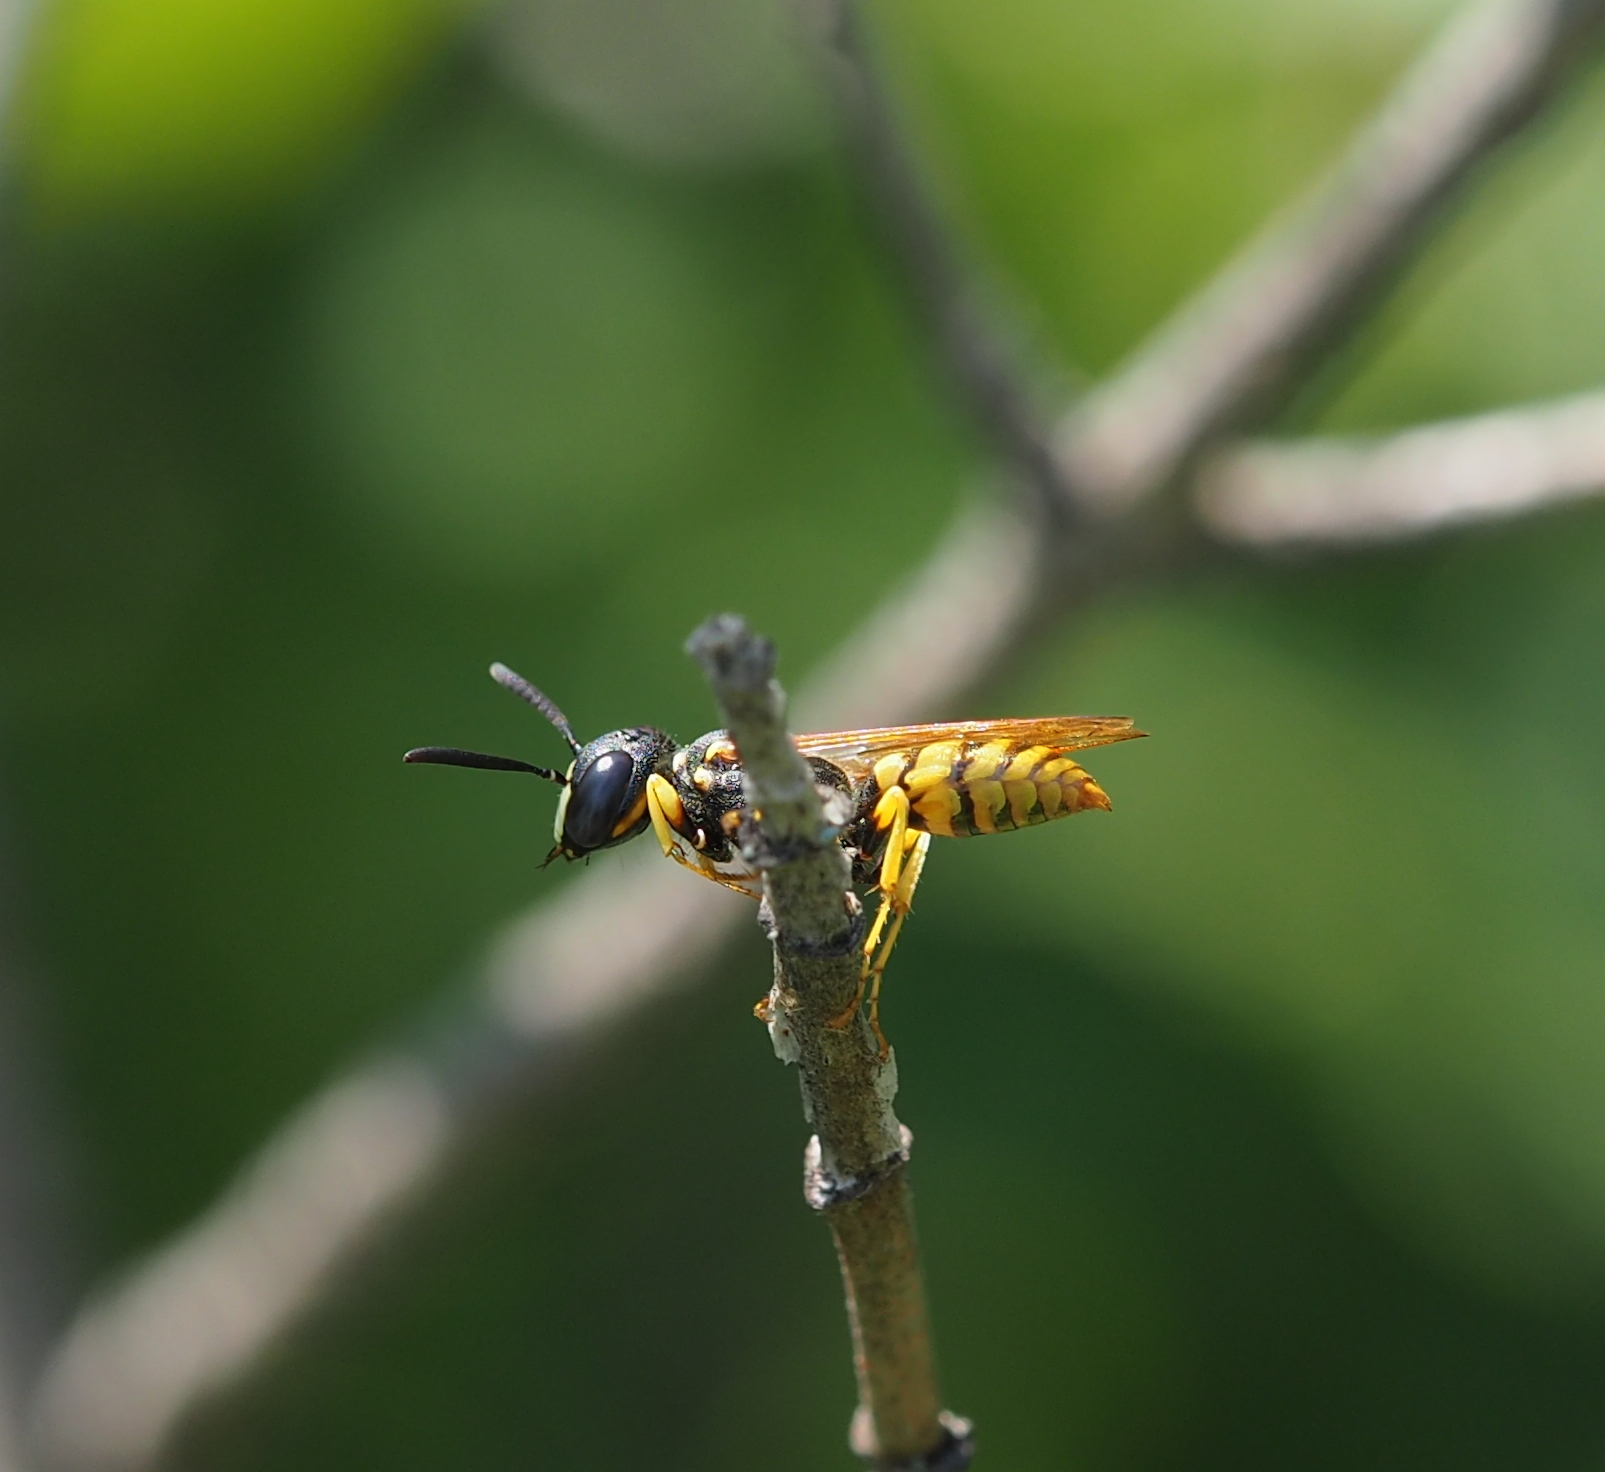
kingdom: Animalia
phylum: Arthropoda
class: Insecta
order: Hymenoptera
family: Crabronidae
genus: Philanthus
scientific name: Philanthus triangulum
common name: Bee wolf
